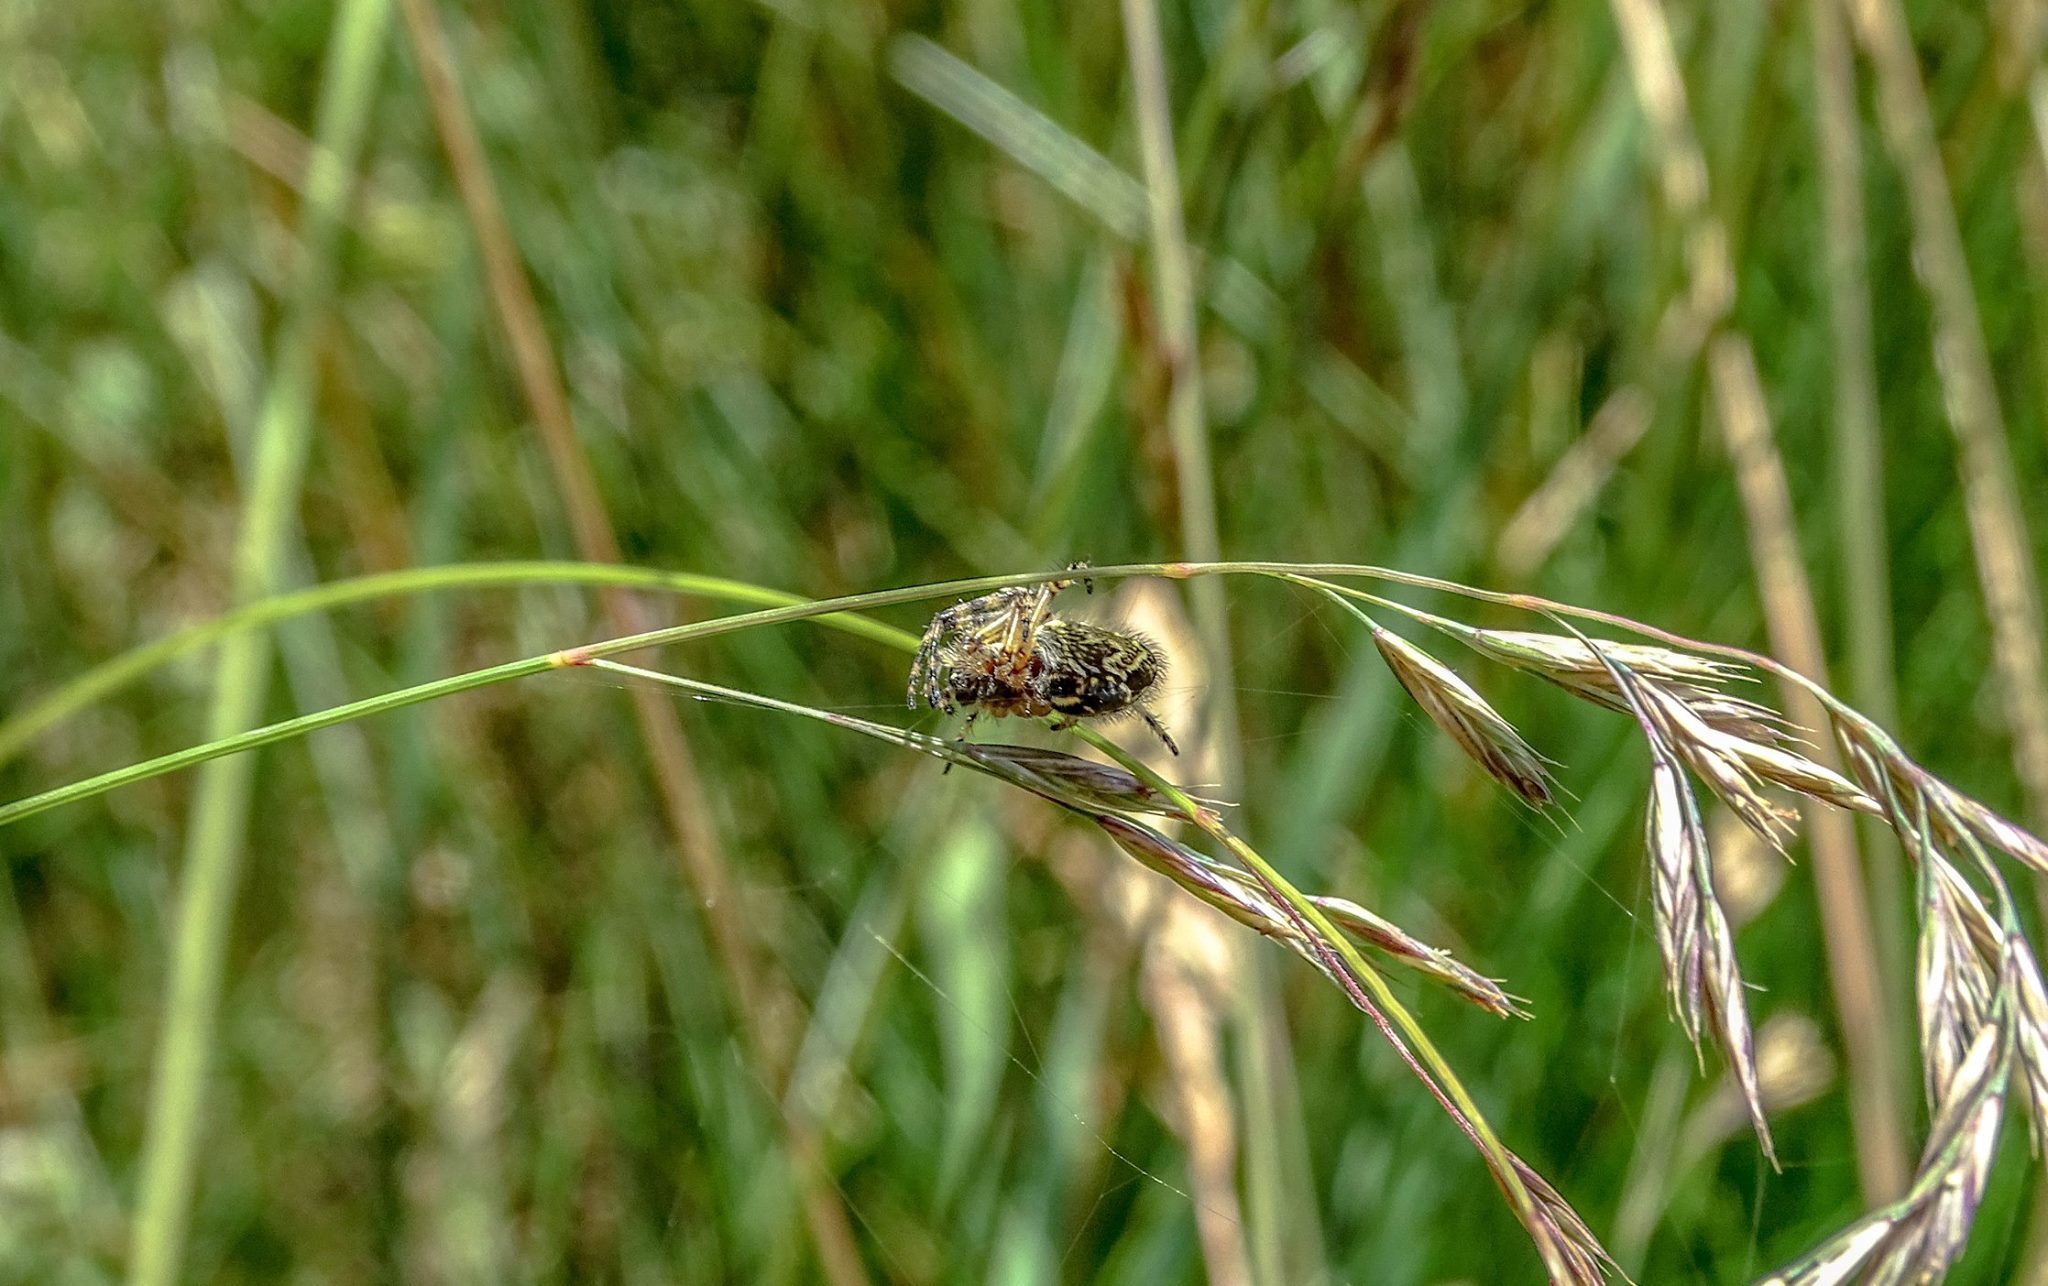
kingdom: Animalia
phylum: Arthropoda
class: Arachnida
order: Araneae
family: Araneidae
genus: Aculepeira
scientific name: Aculepeira ceropegia
